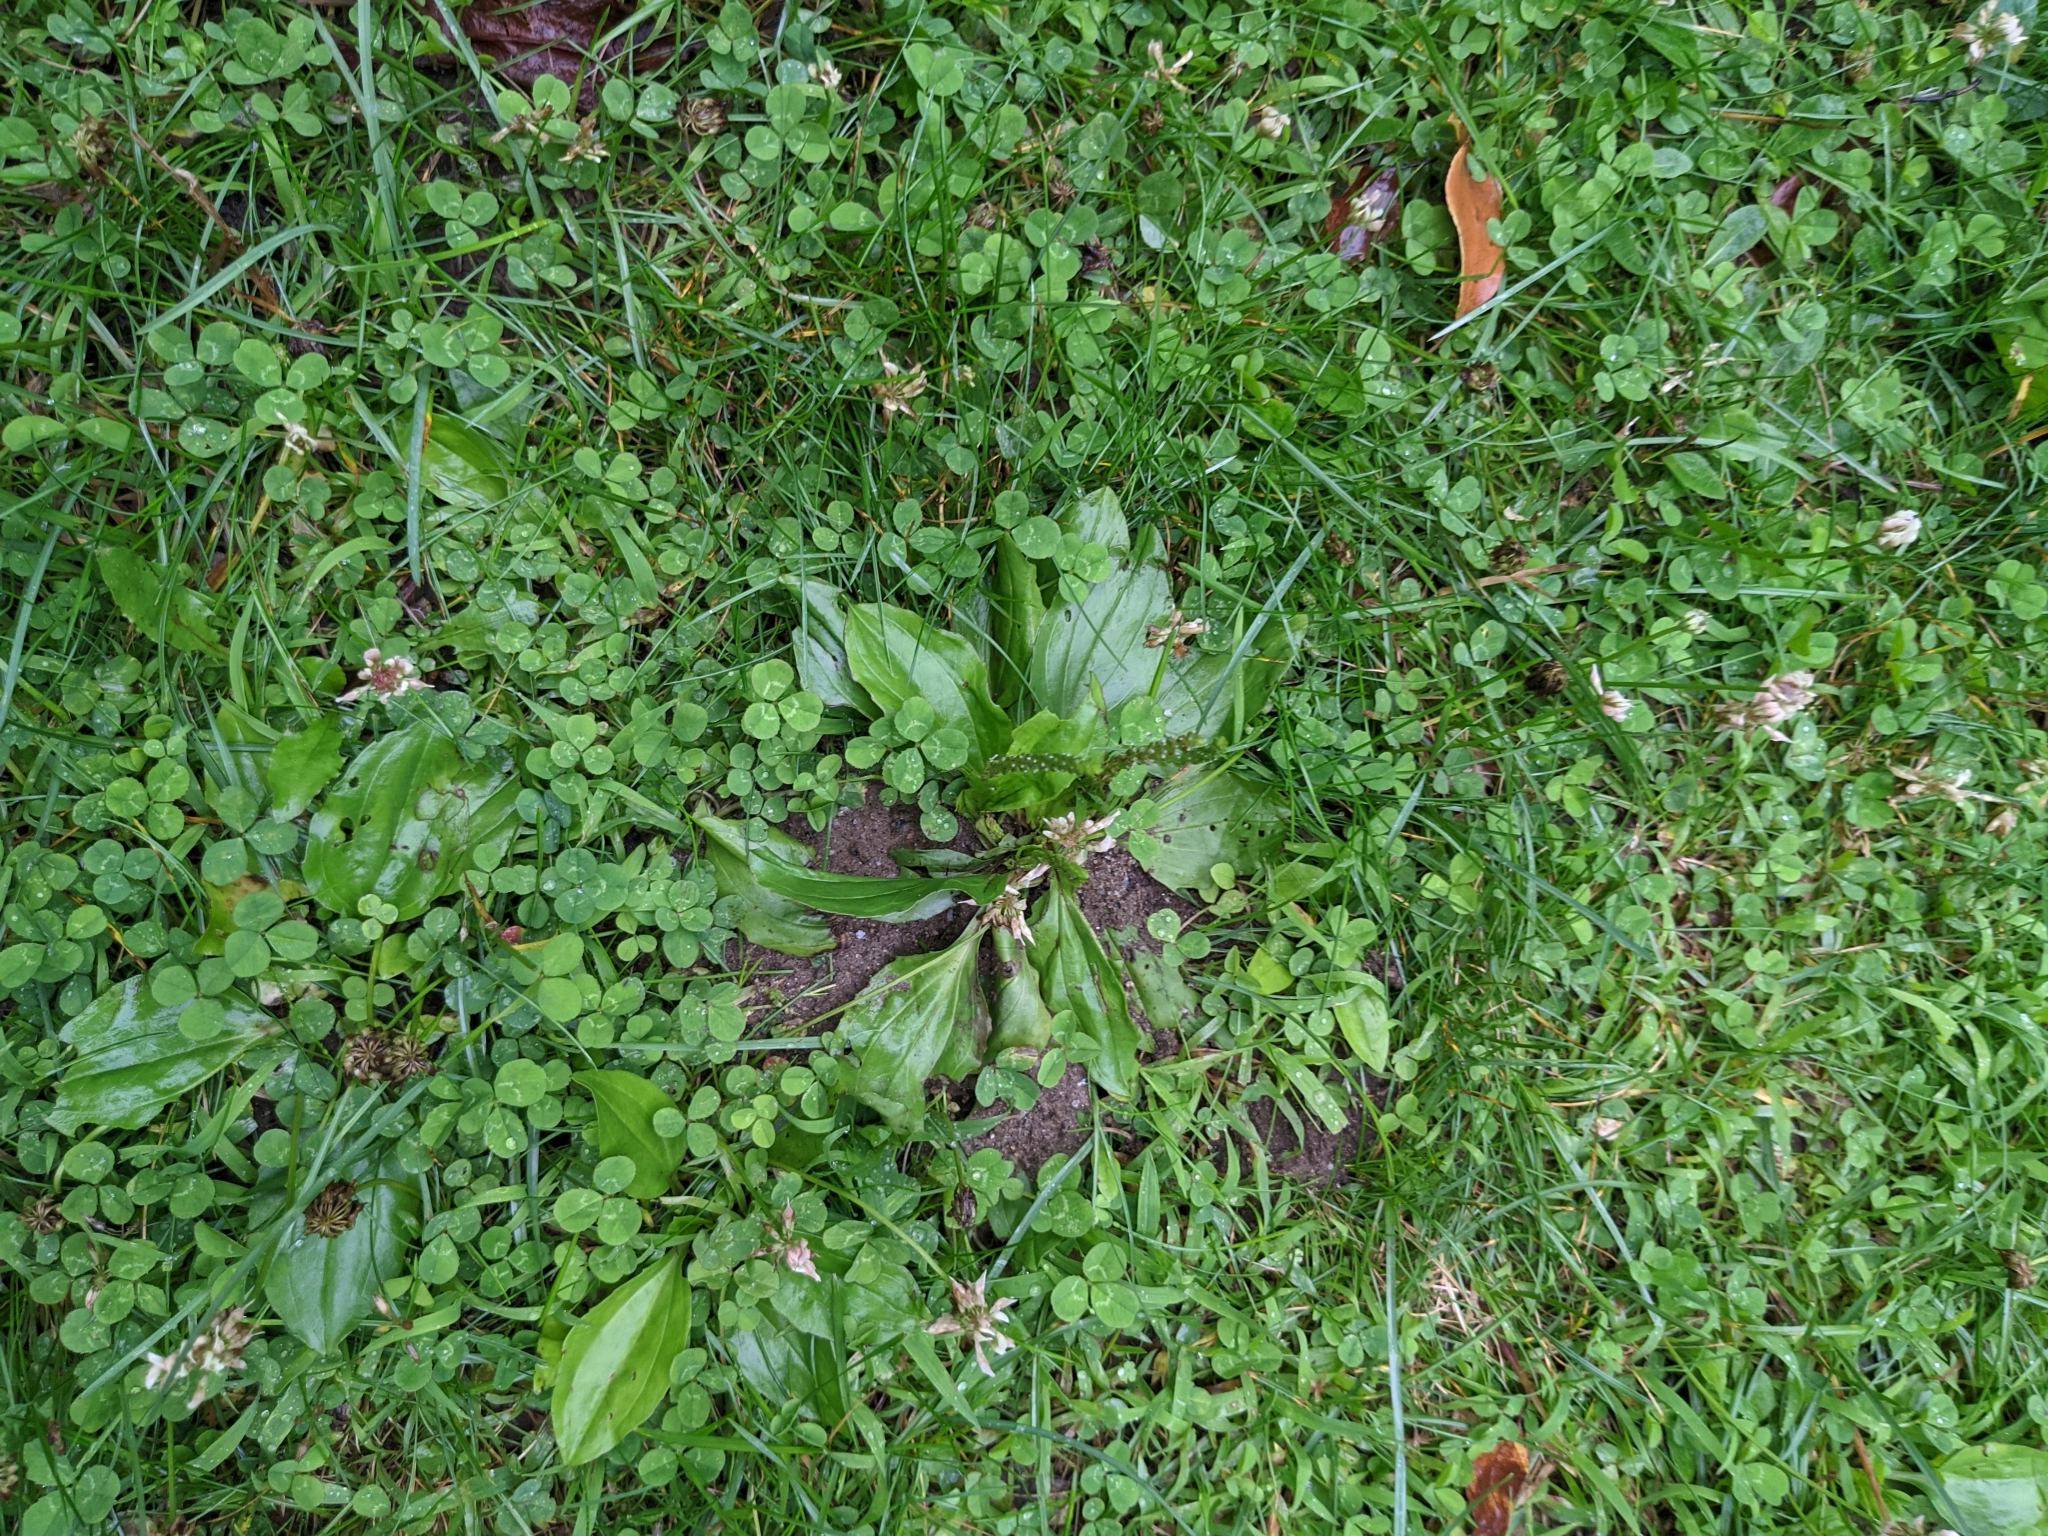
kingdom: Plantae
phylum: Tracheophyta
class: Magnoliopsida
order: Lamiales
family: Plantaginaceae
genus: Plantago
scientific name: Plantago rugelii
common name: American plantain
